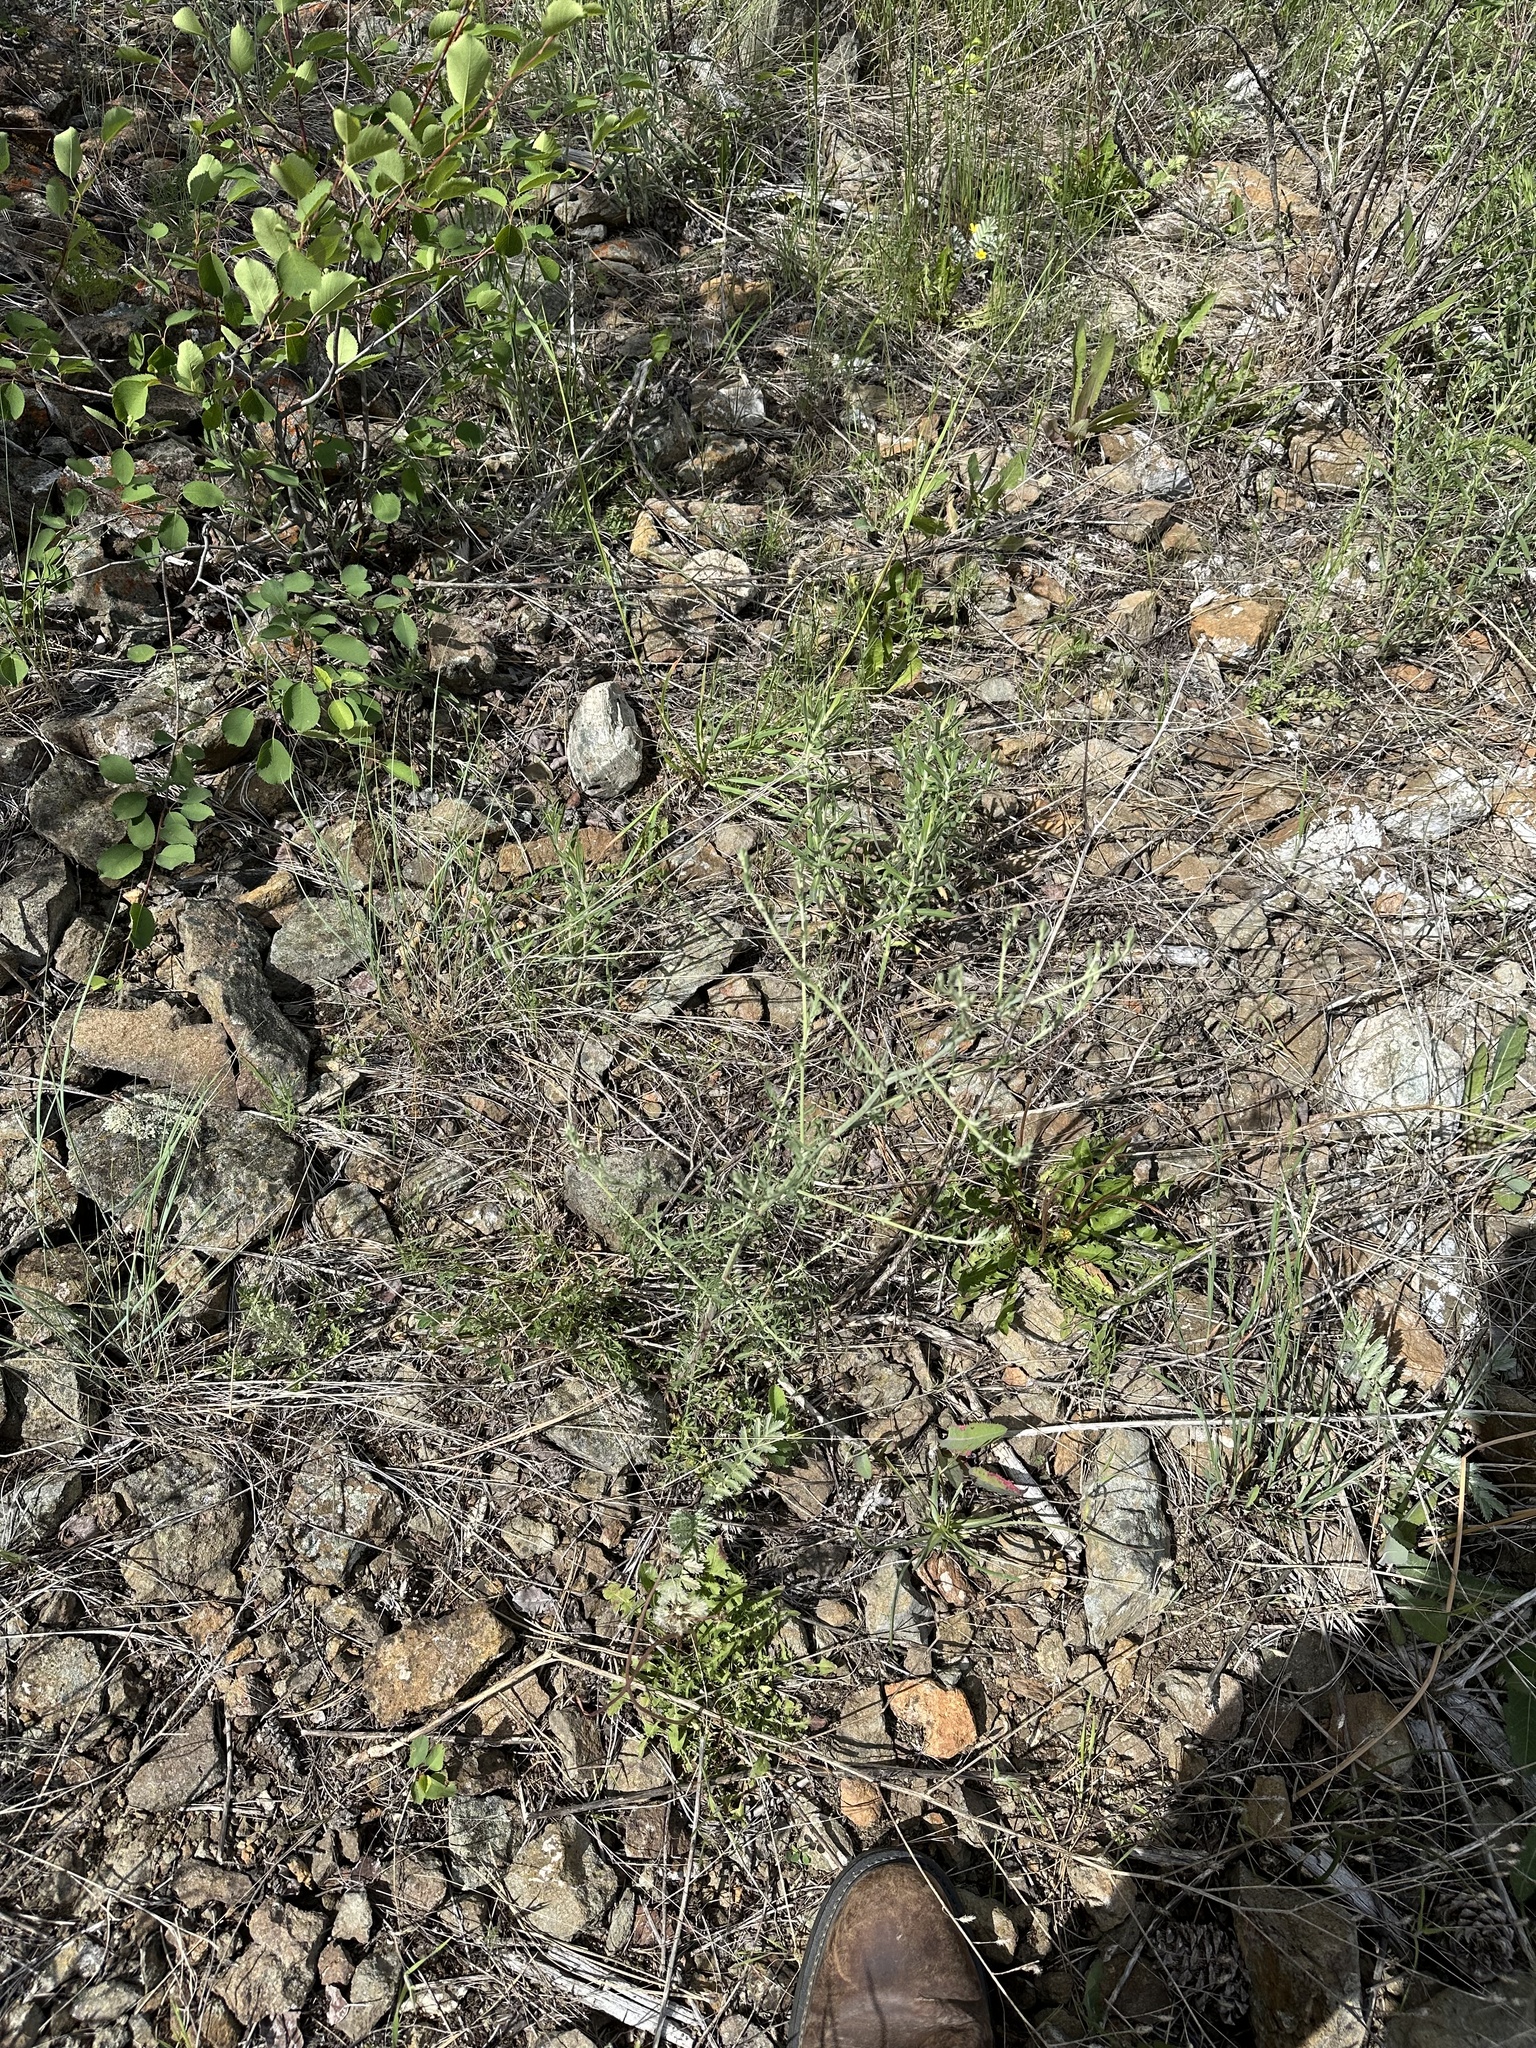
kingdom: Plantae
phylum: Tracheophyta
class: Magnoliopsida
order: Asterales
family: Asteraceae
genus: Centaurea
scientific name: Centaurea diffusa
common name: Diffuse knapweed
